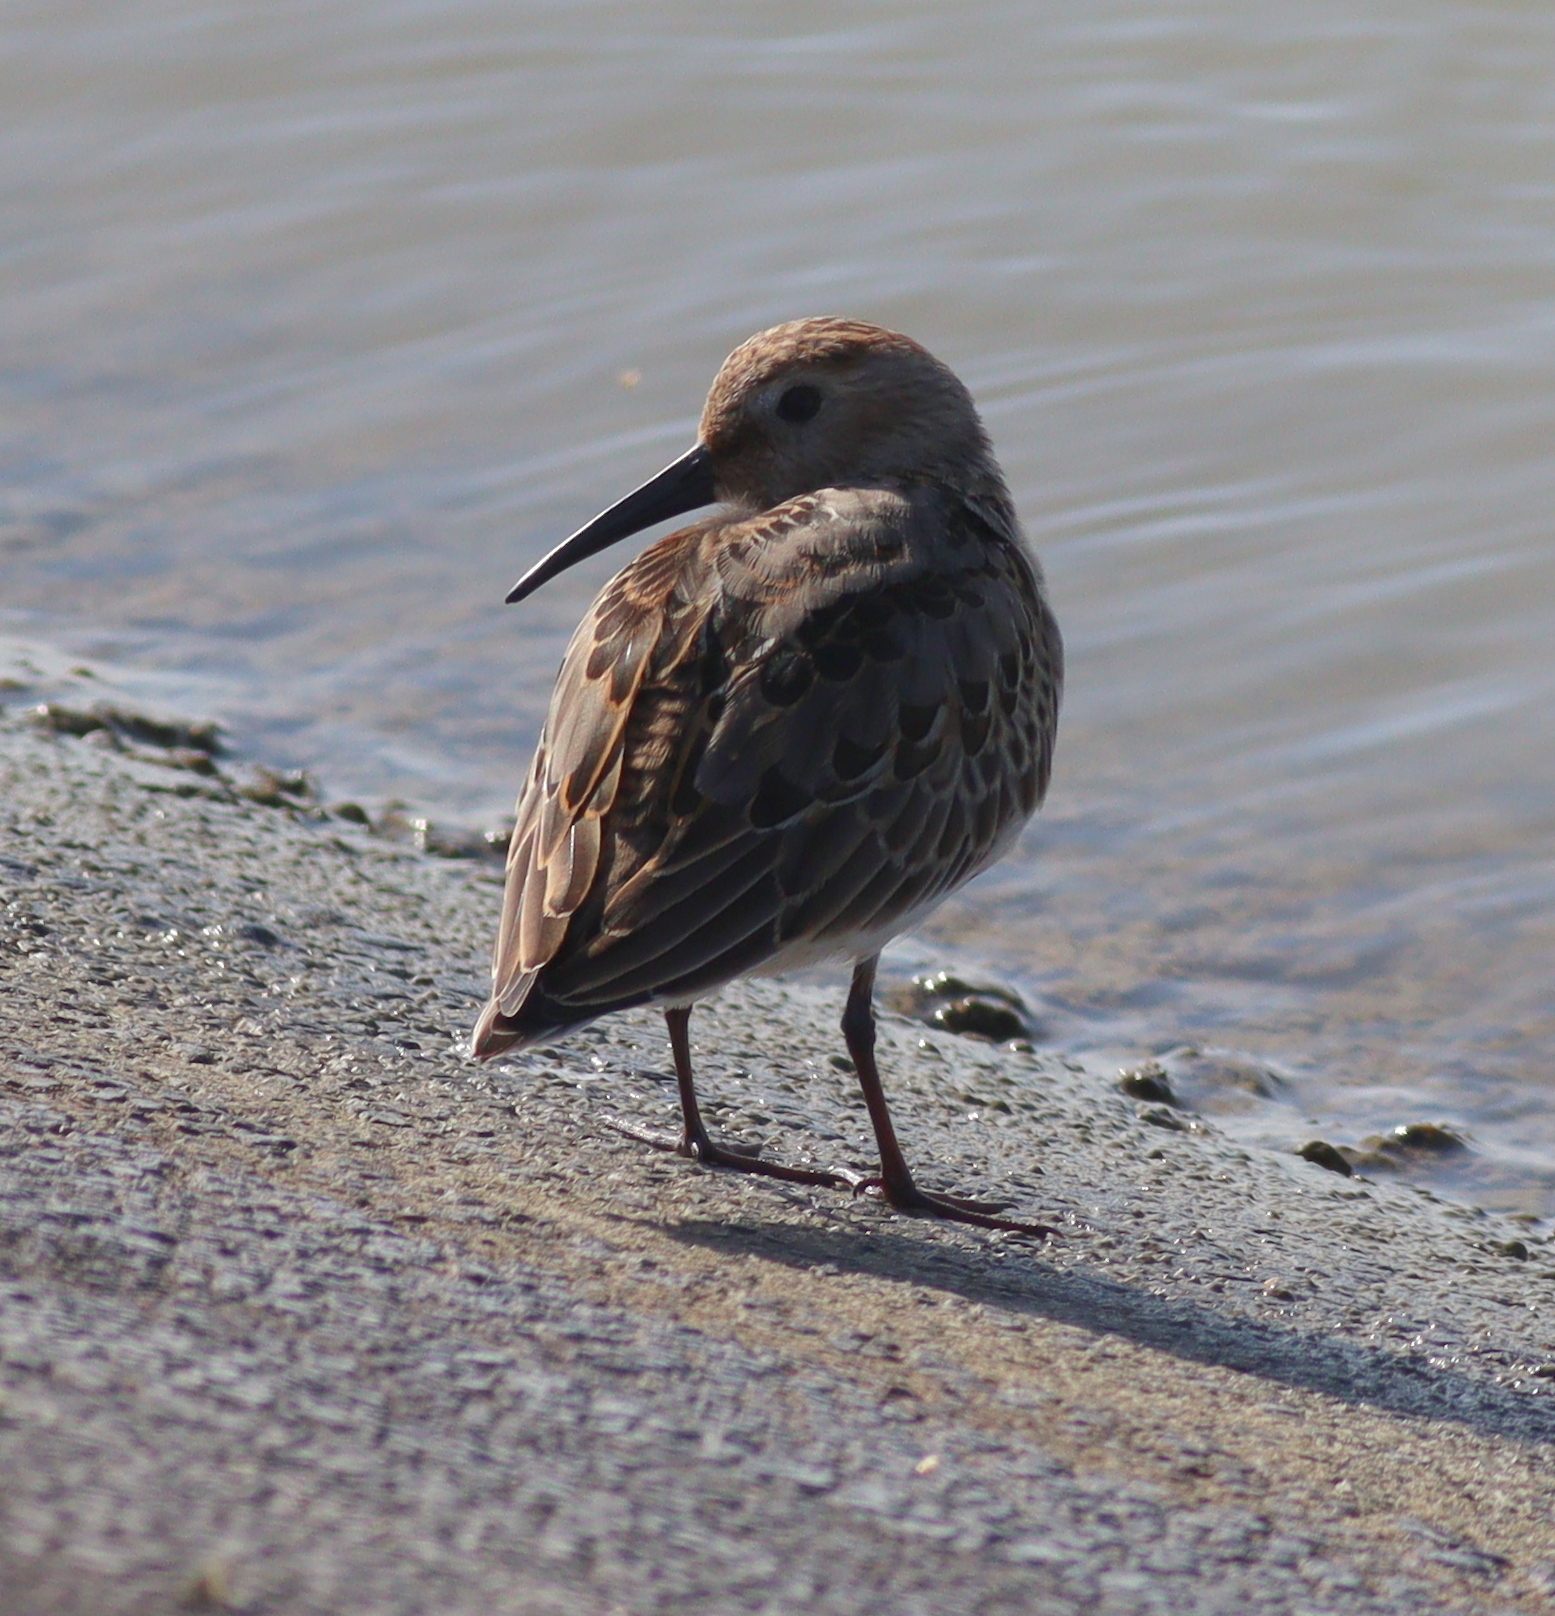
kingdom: Animalia
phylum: Chordata
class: Aves
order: Charadriiformes
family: Scolopacidae
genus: Calidris
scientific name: Calidris alpina
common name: Dunlin
